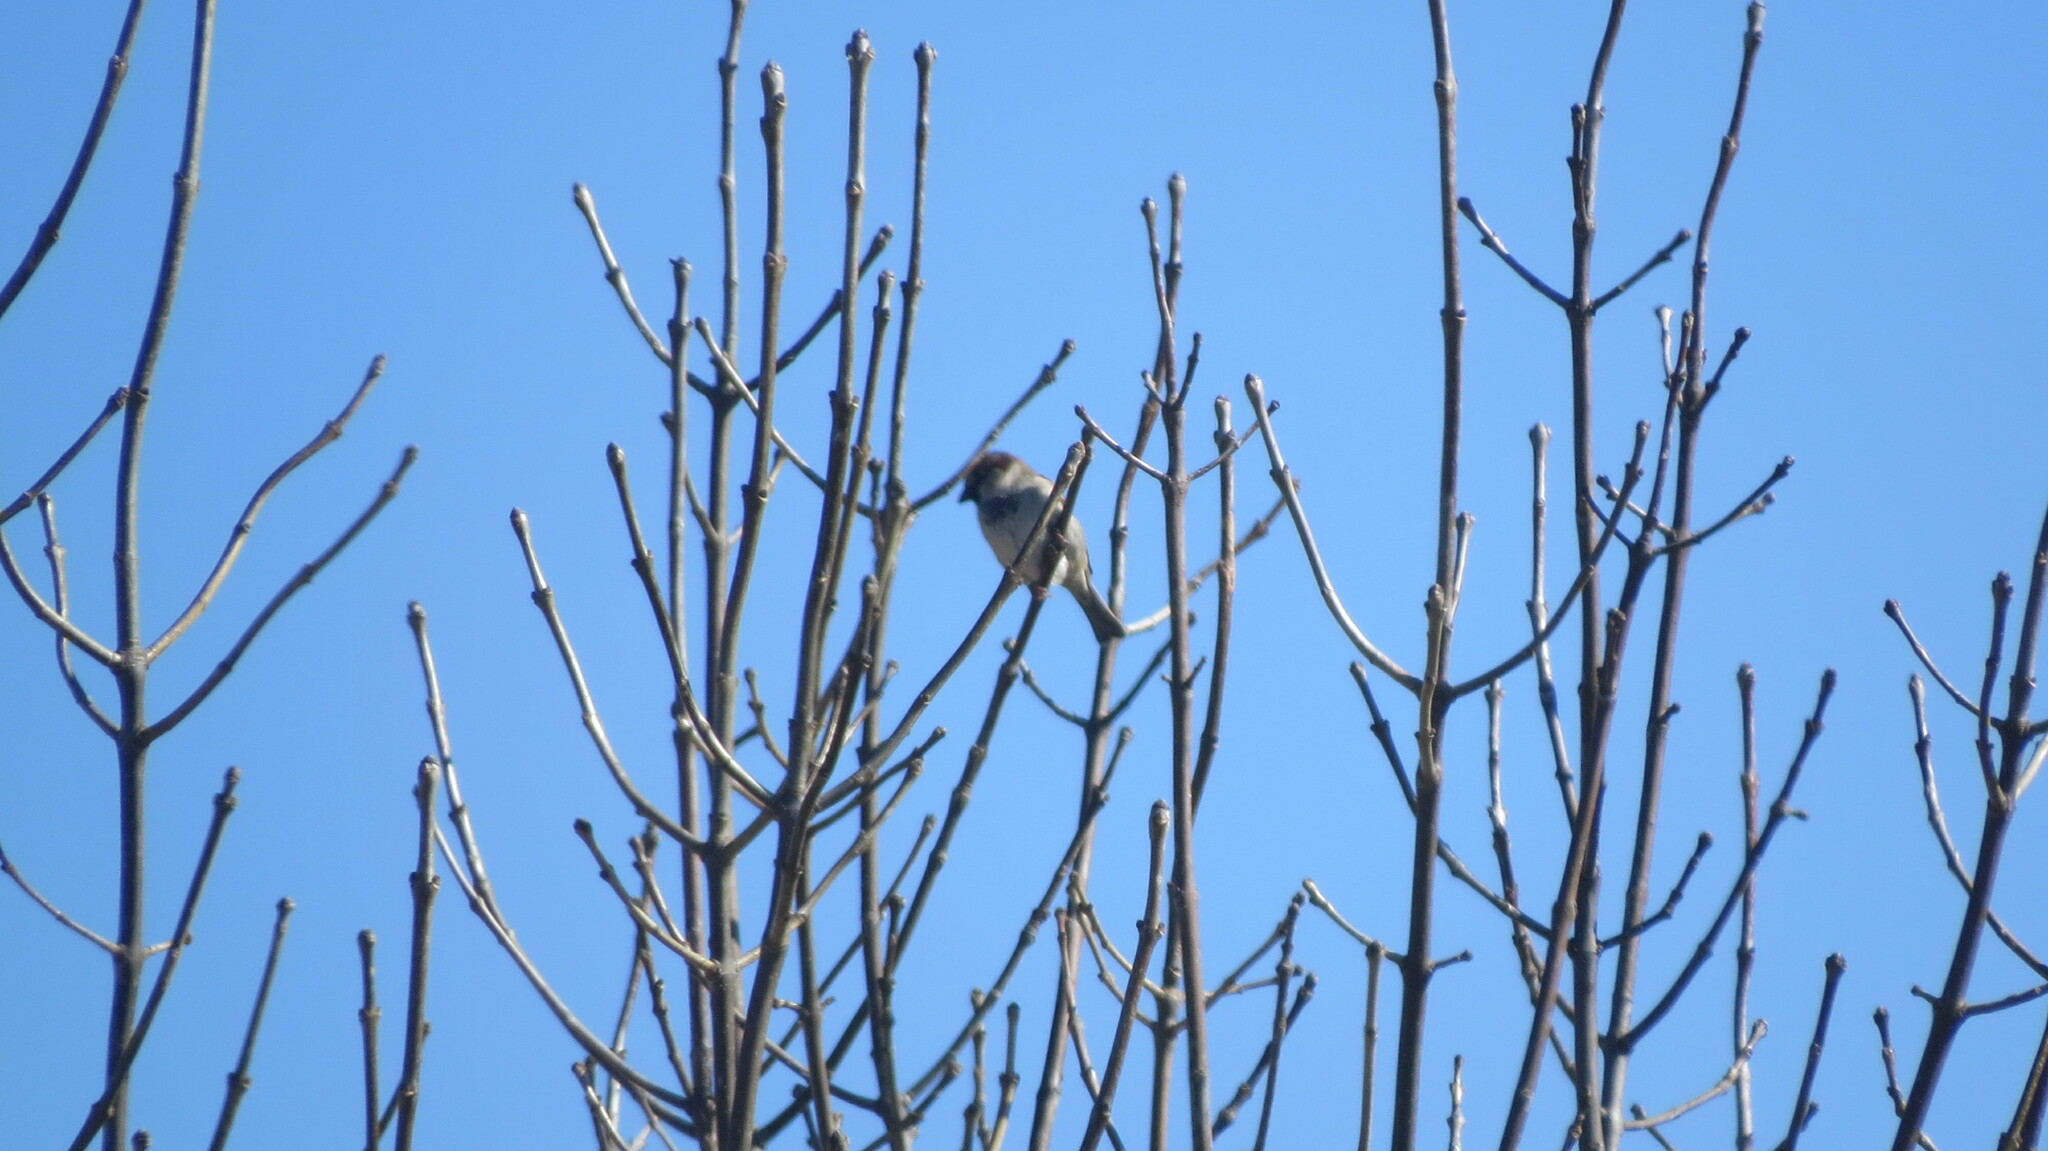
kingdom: Animalia
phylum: Chordata
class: Aves
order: Passeriformes
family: Passeridae
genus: Passer
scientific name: Passer domesticus
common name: House sparrow
